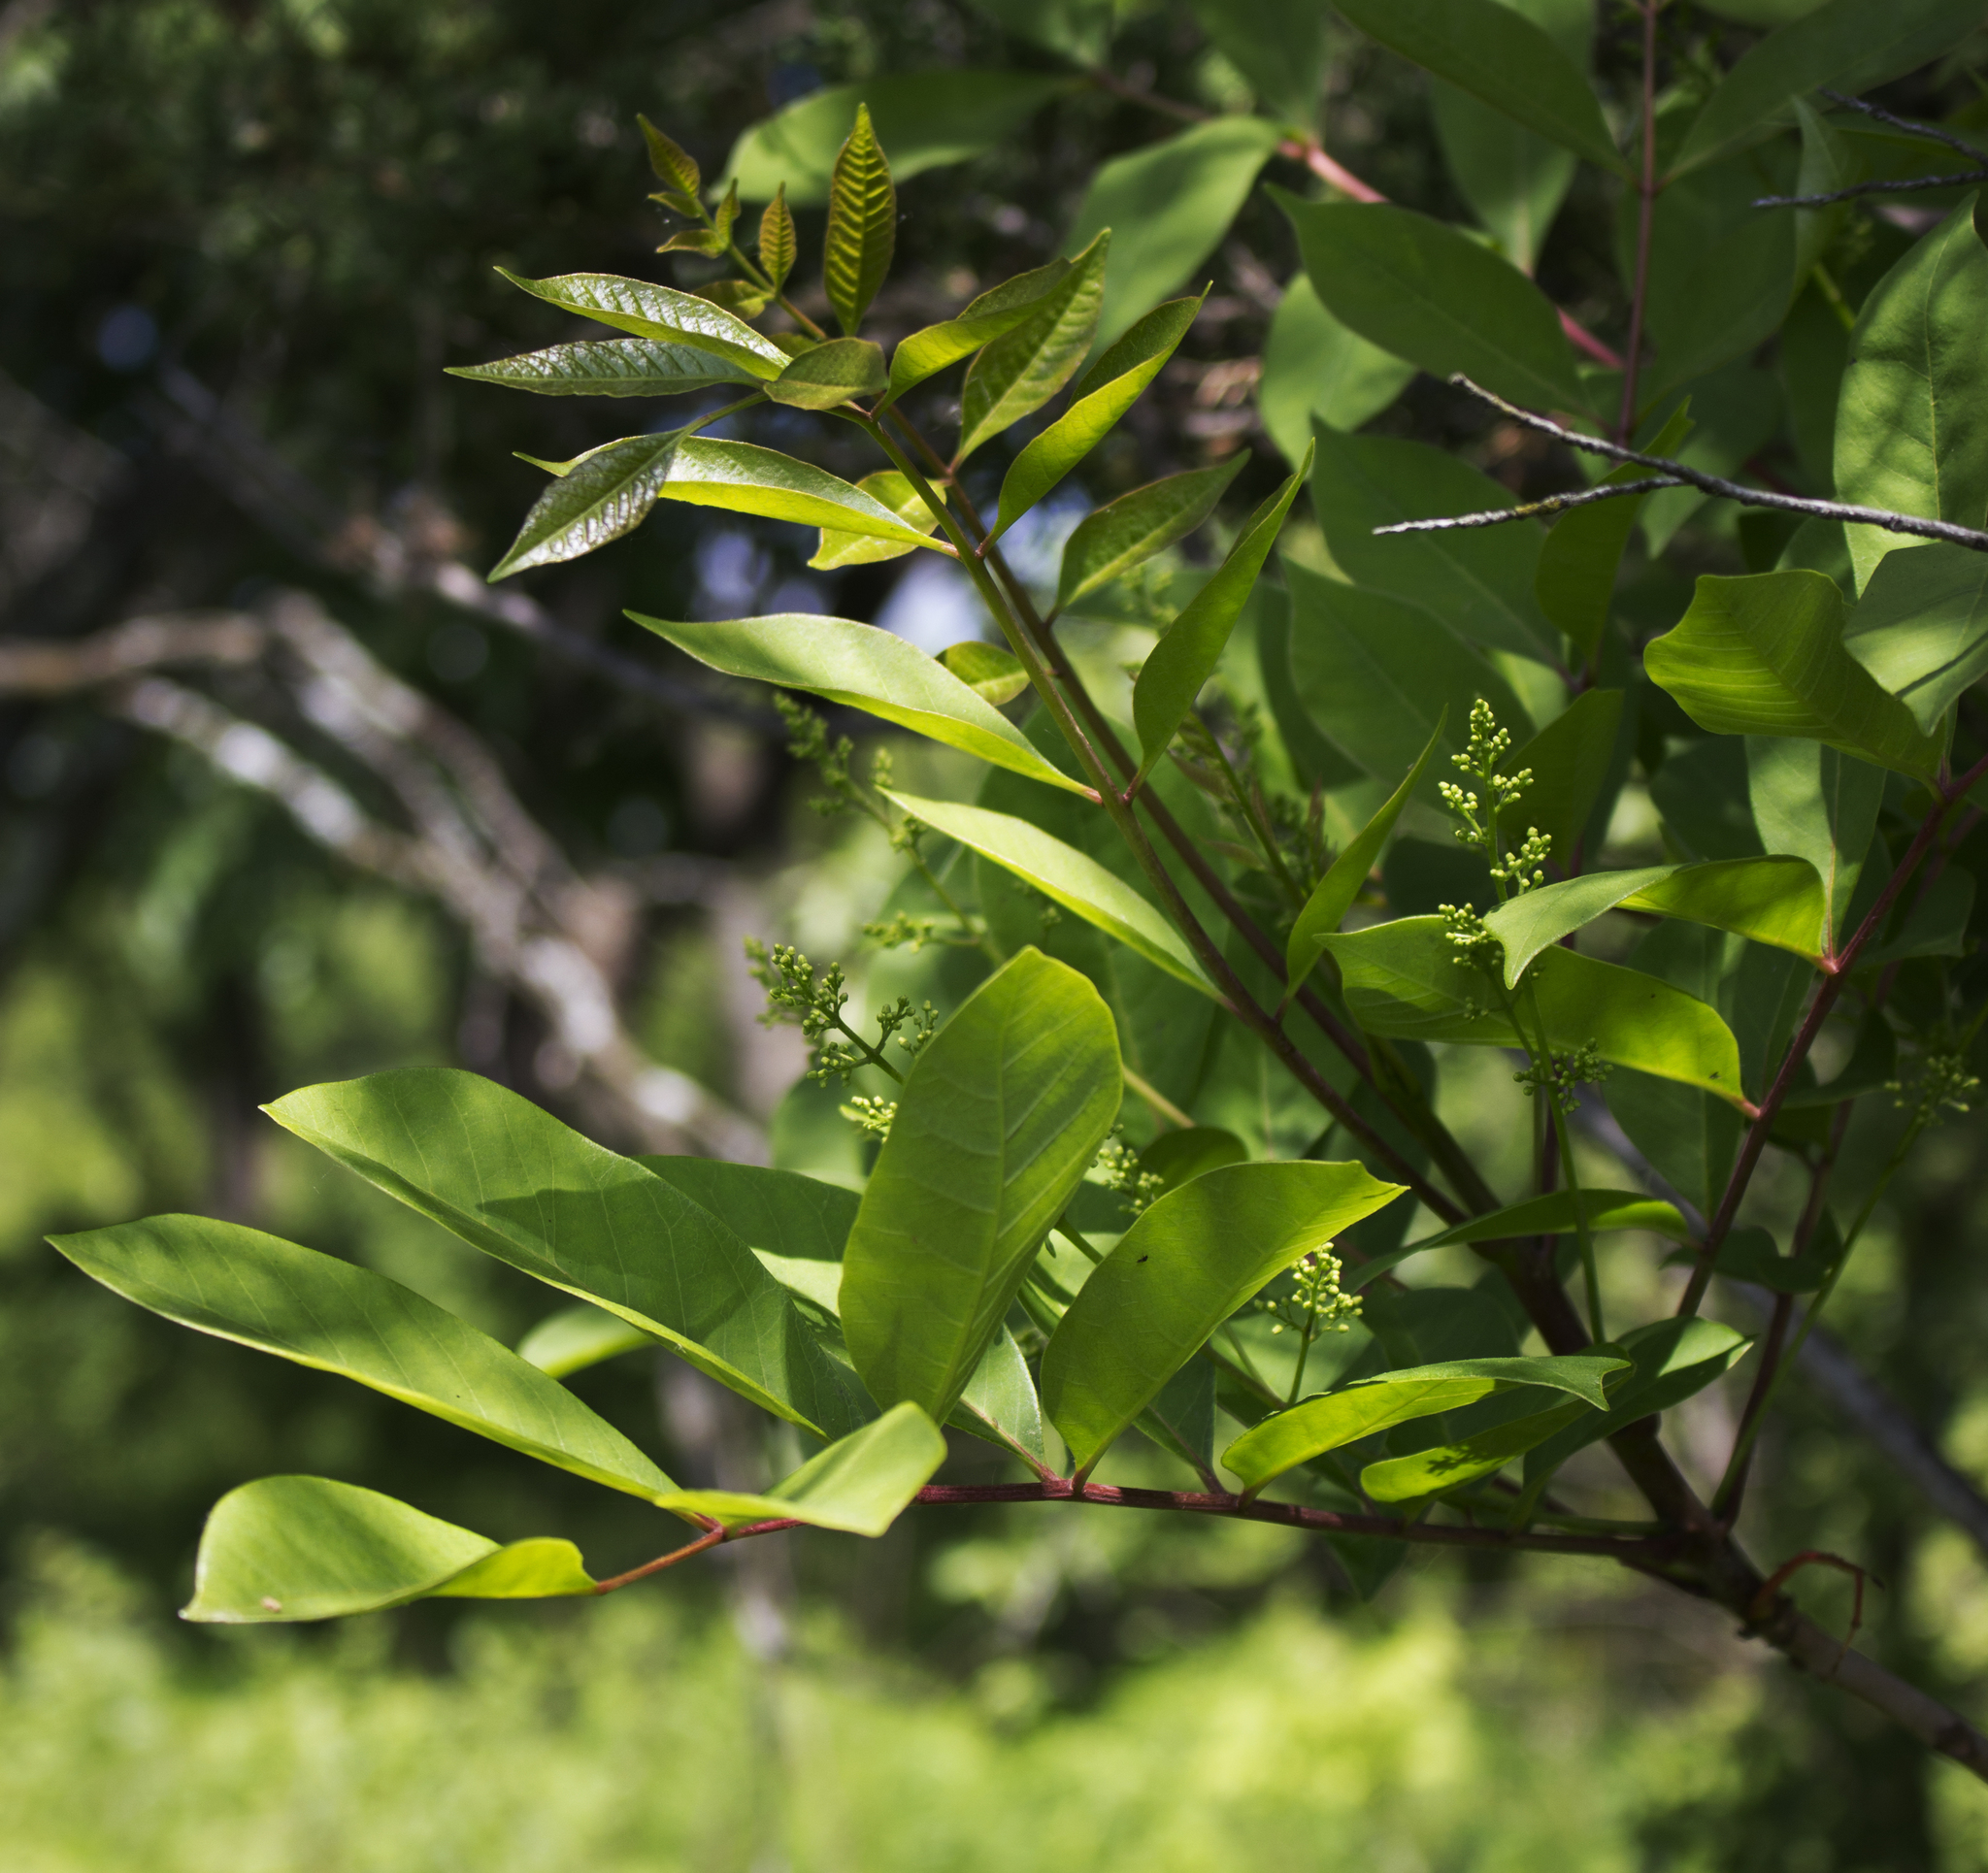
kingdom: Plantae
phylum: Tracheophyta
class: Magnoliopsida
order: Sapindales
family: Anacardiaceae
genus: Toxicodendron
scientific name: Toxicodendron vernix
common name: Poison sumac
